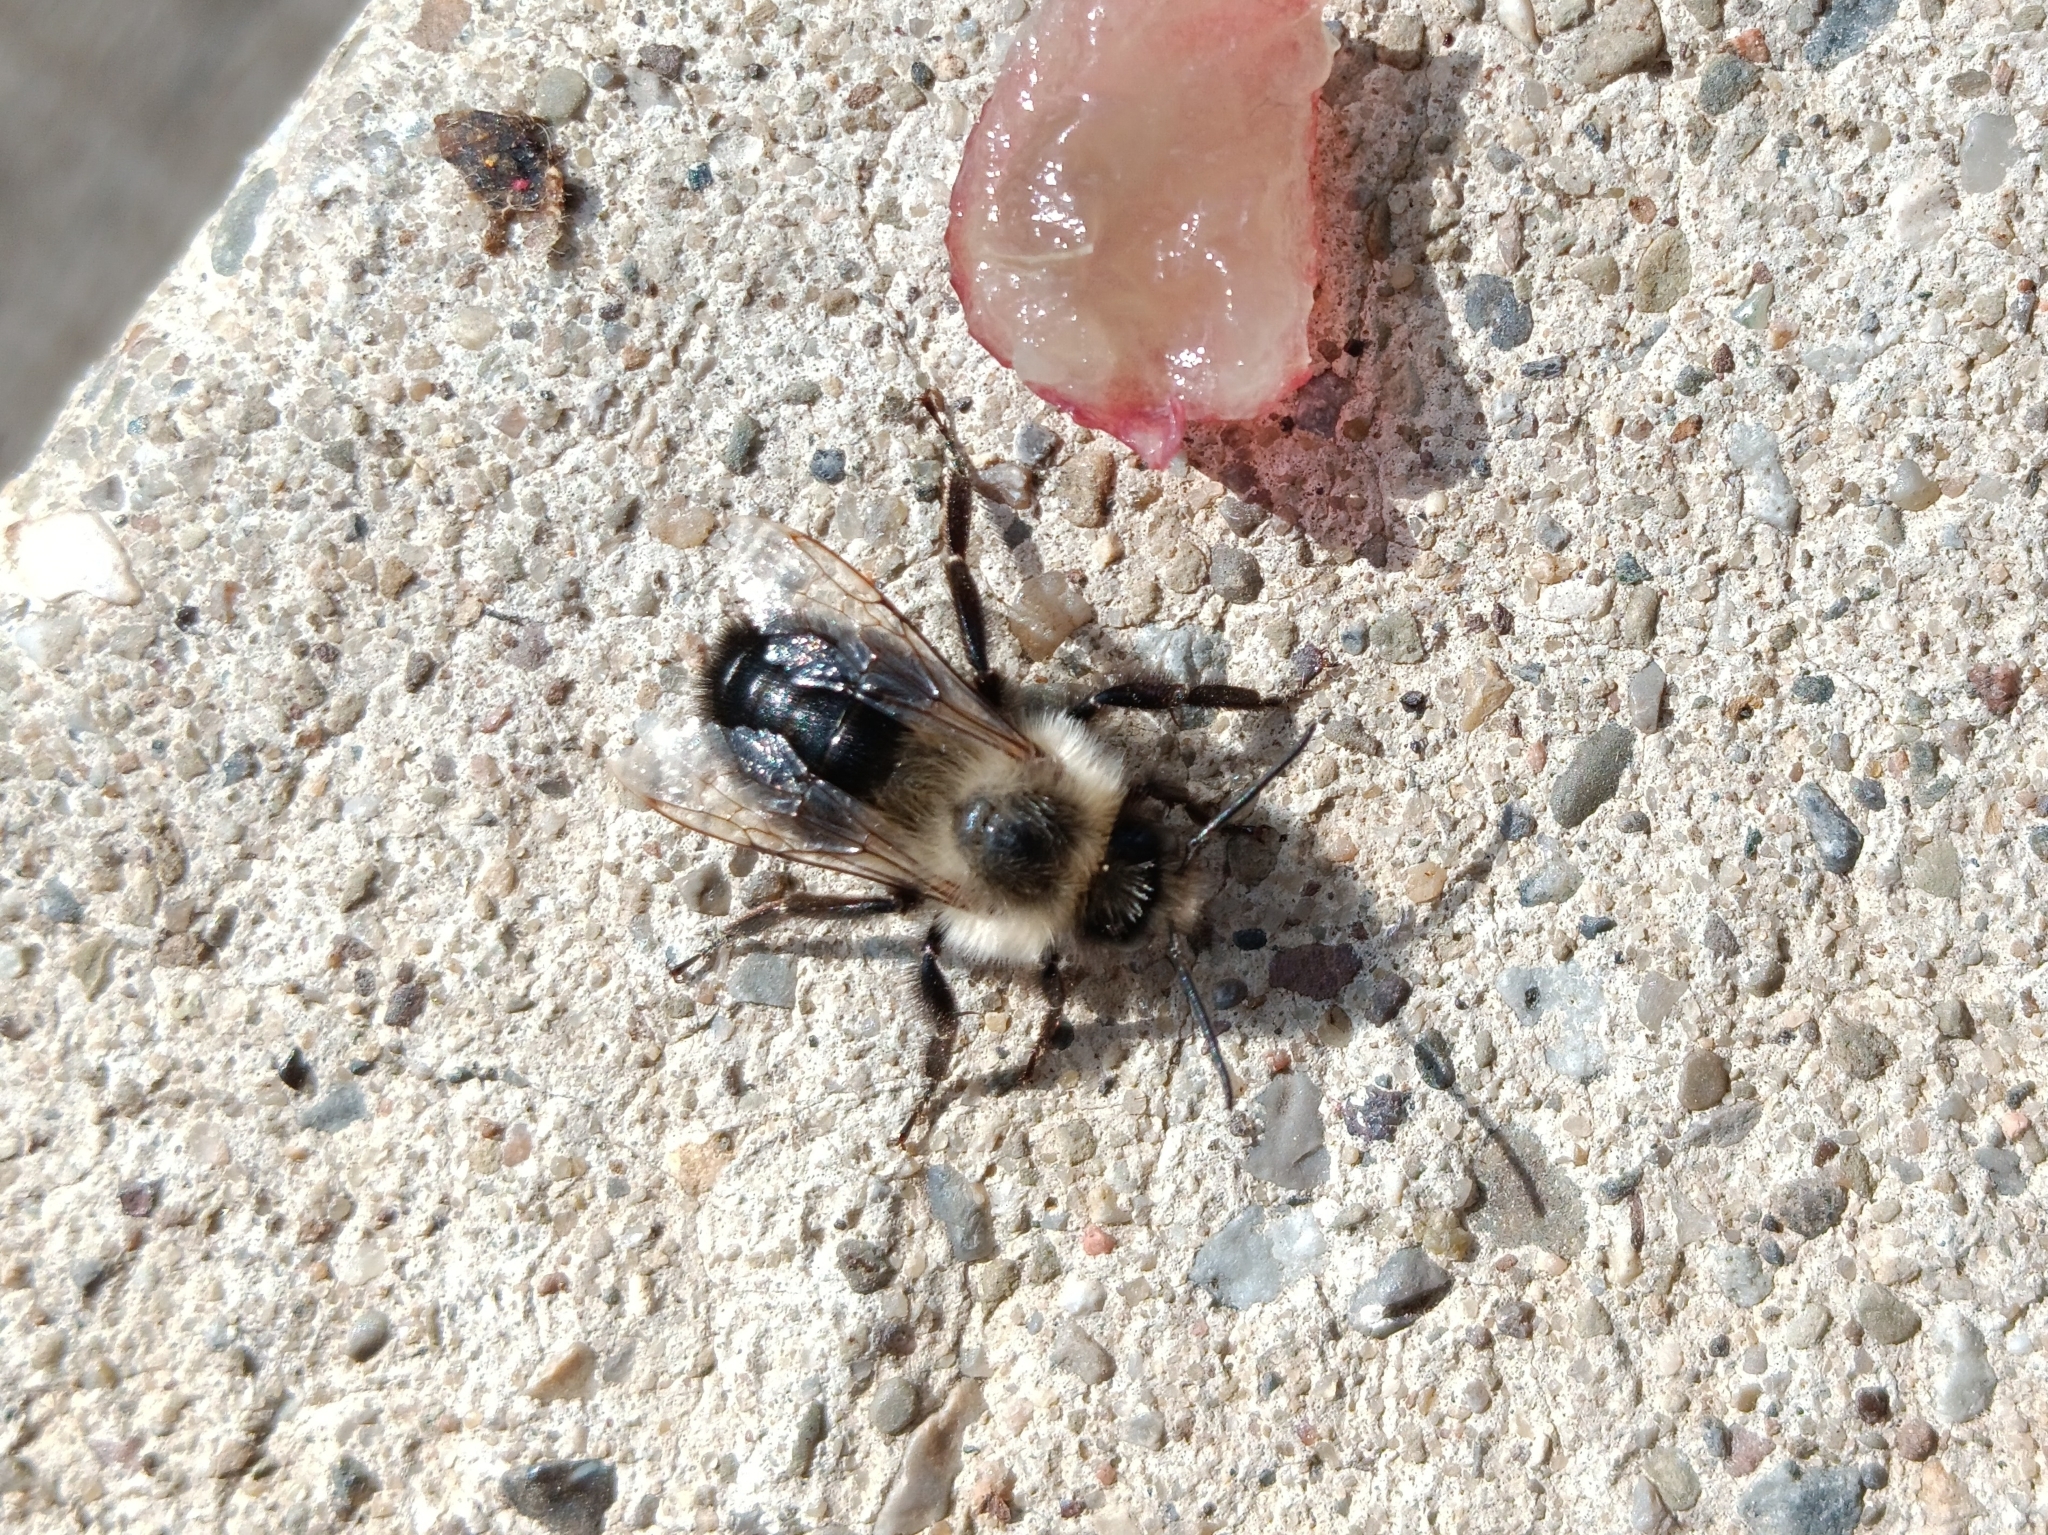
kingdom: Animalia
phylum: Arthropoda
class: Insecta
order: Hymenoptera
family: Apidae
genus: Bombus
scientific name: Bombus impatiens
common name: Common eastern bumble bee
